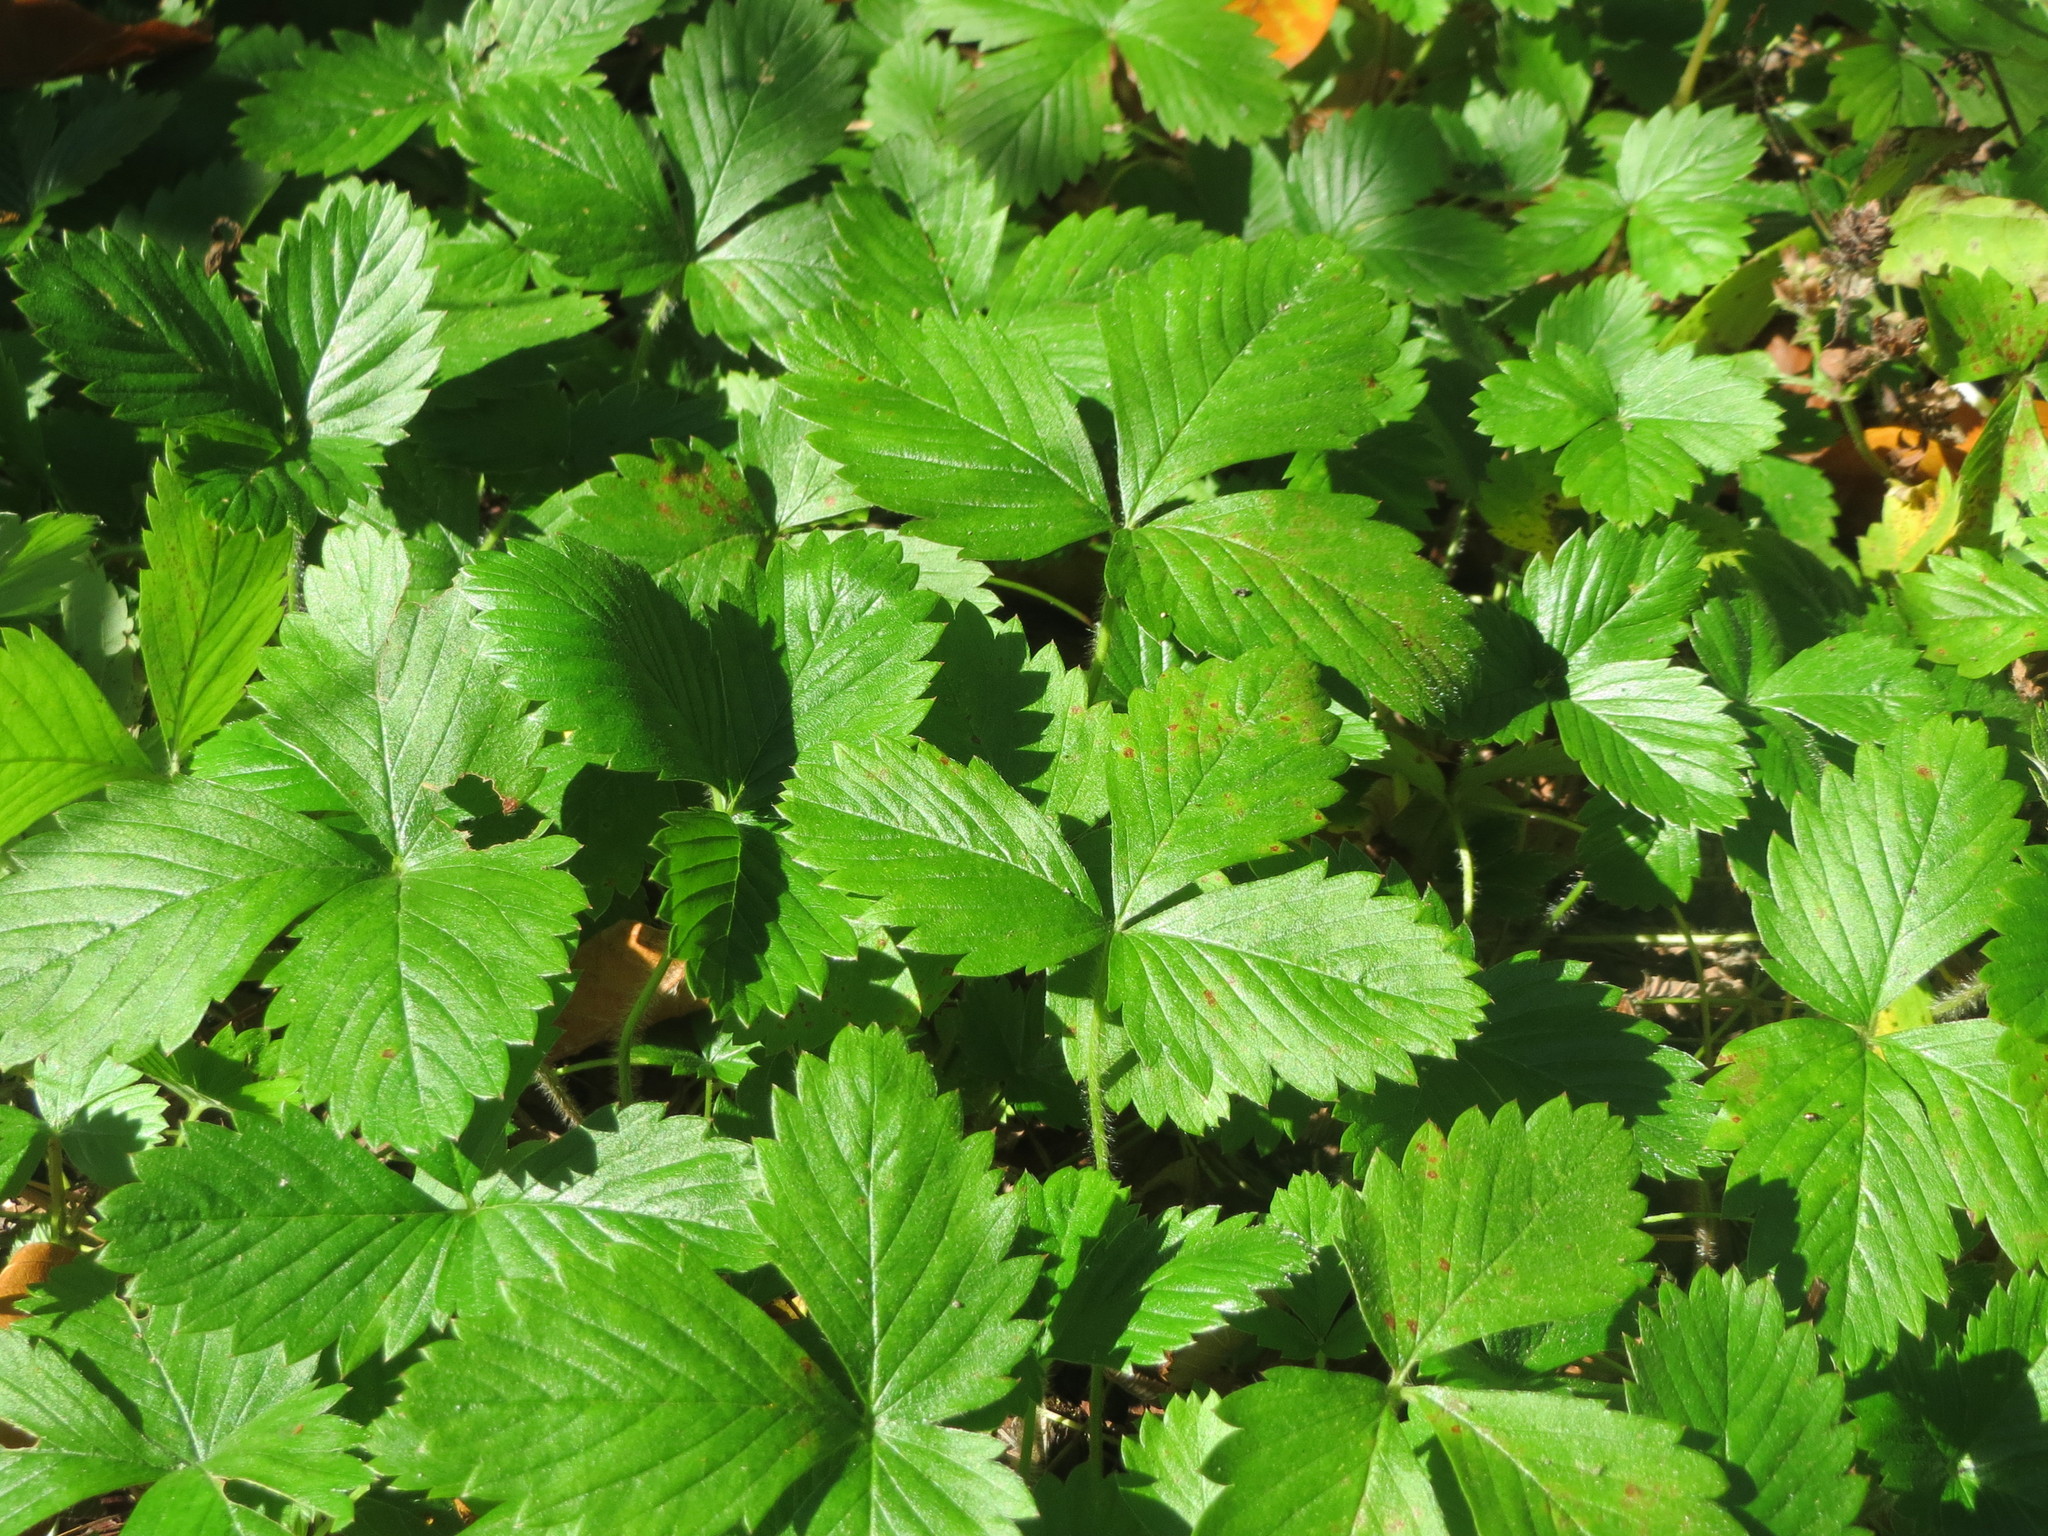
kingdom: Plantae
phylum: Tracheophyta
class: Magnoliopsida
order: Rosales
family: Rosaceae
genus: Fragaria
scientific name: Fragaria vesca
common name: Wild strawberry
